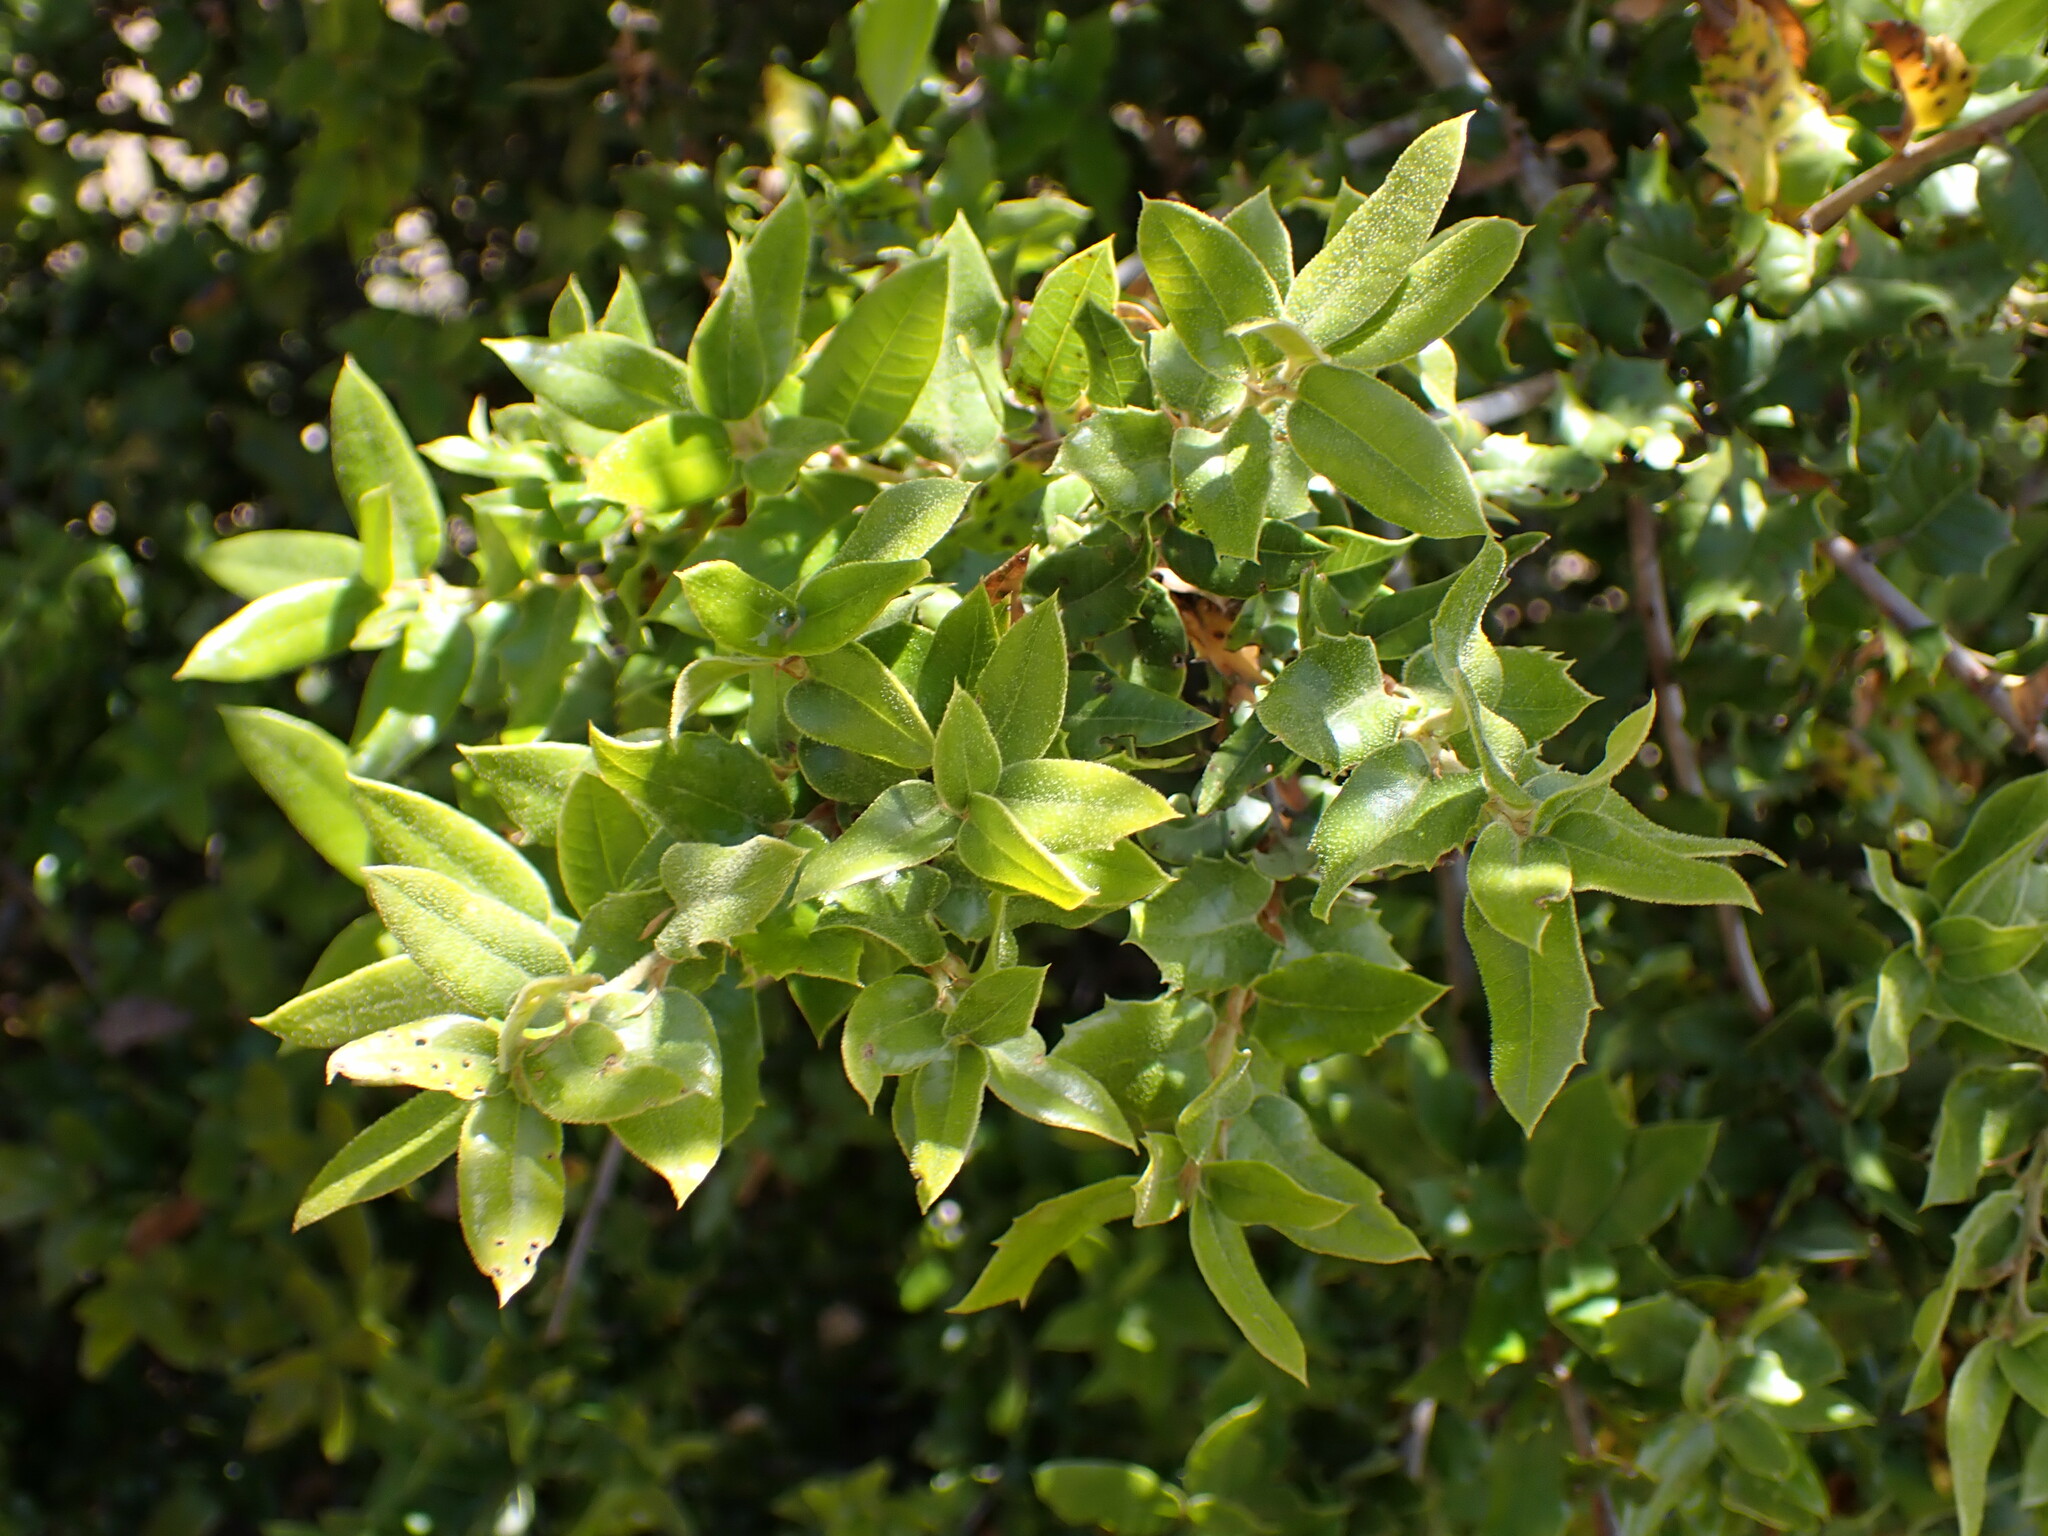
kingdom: Plantae
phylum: Tracheophyta
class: Magnoliopsida
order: Fagales
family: Fagaceae
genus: Quercus
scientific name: Quercus chrysolepis
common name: Canyon live oak
